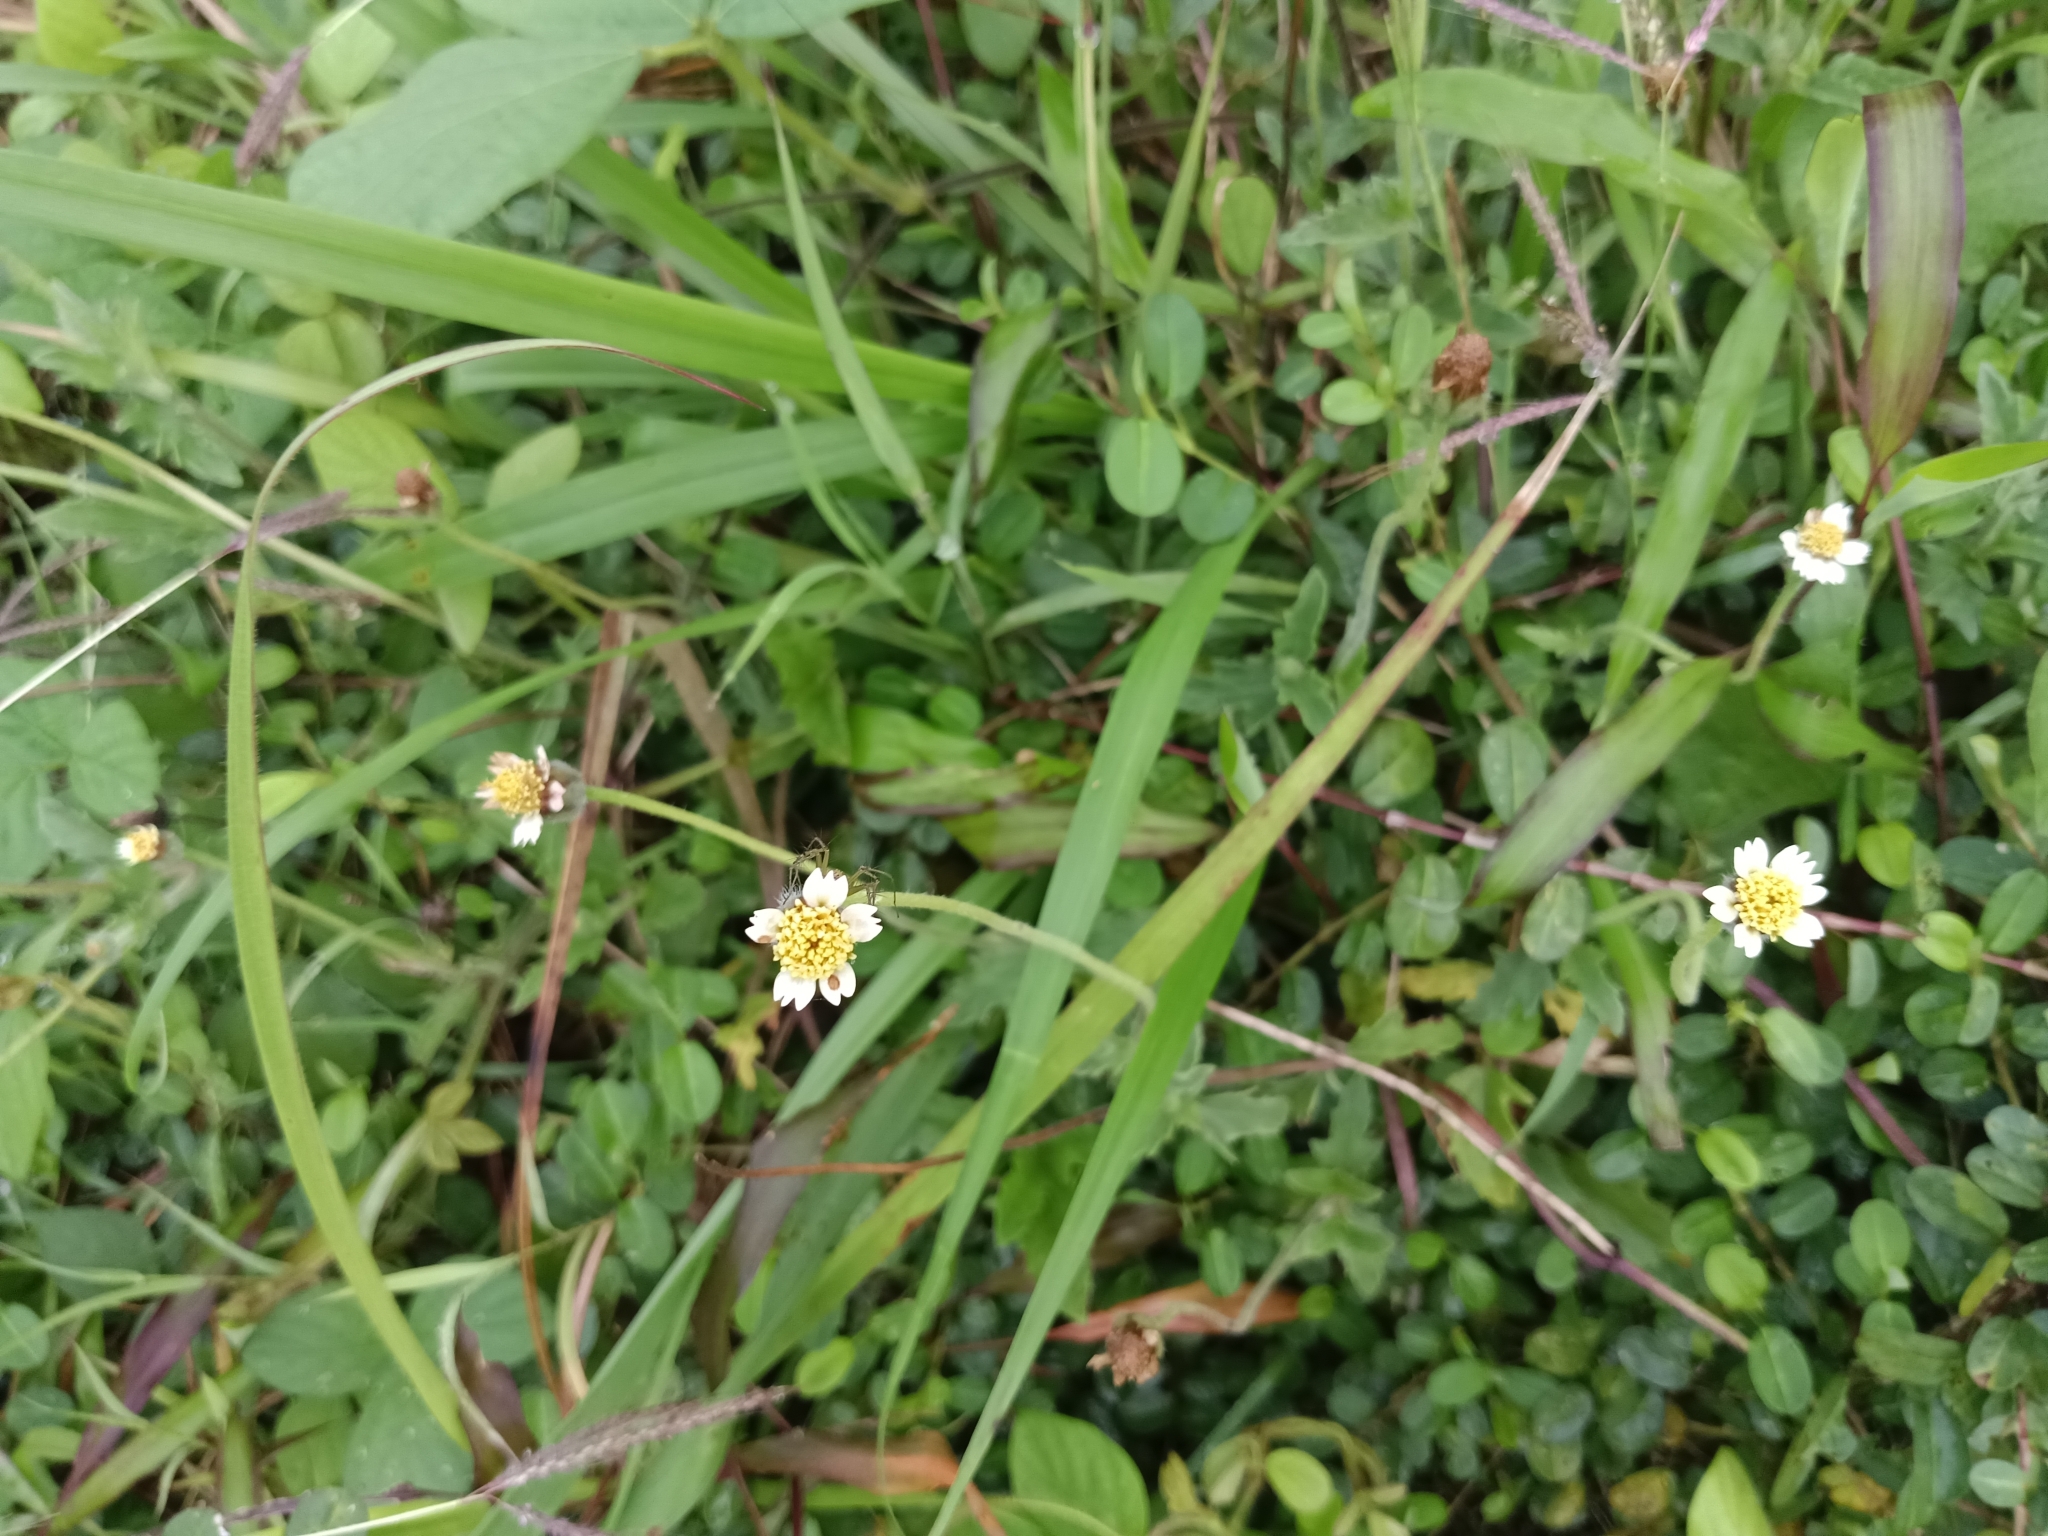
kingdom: Plantae
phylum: Tracheophyta
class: Magnoliopsida
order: Asterales
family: Asteraceae
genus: Tridax
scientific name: Tridax procumbens
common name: Coatbuttons
